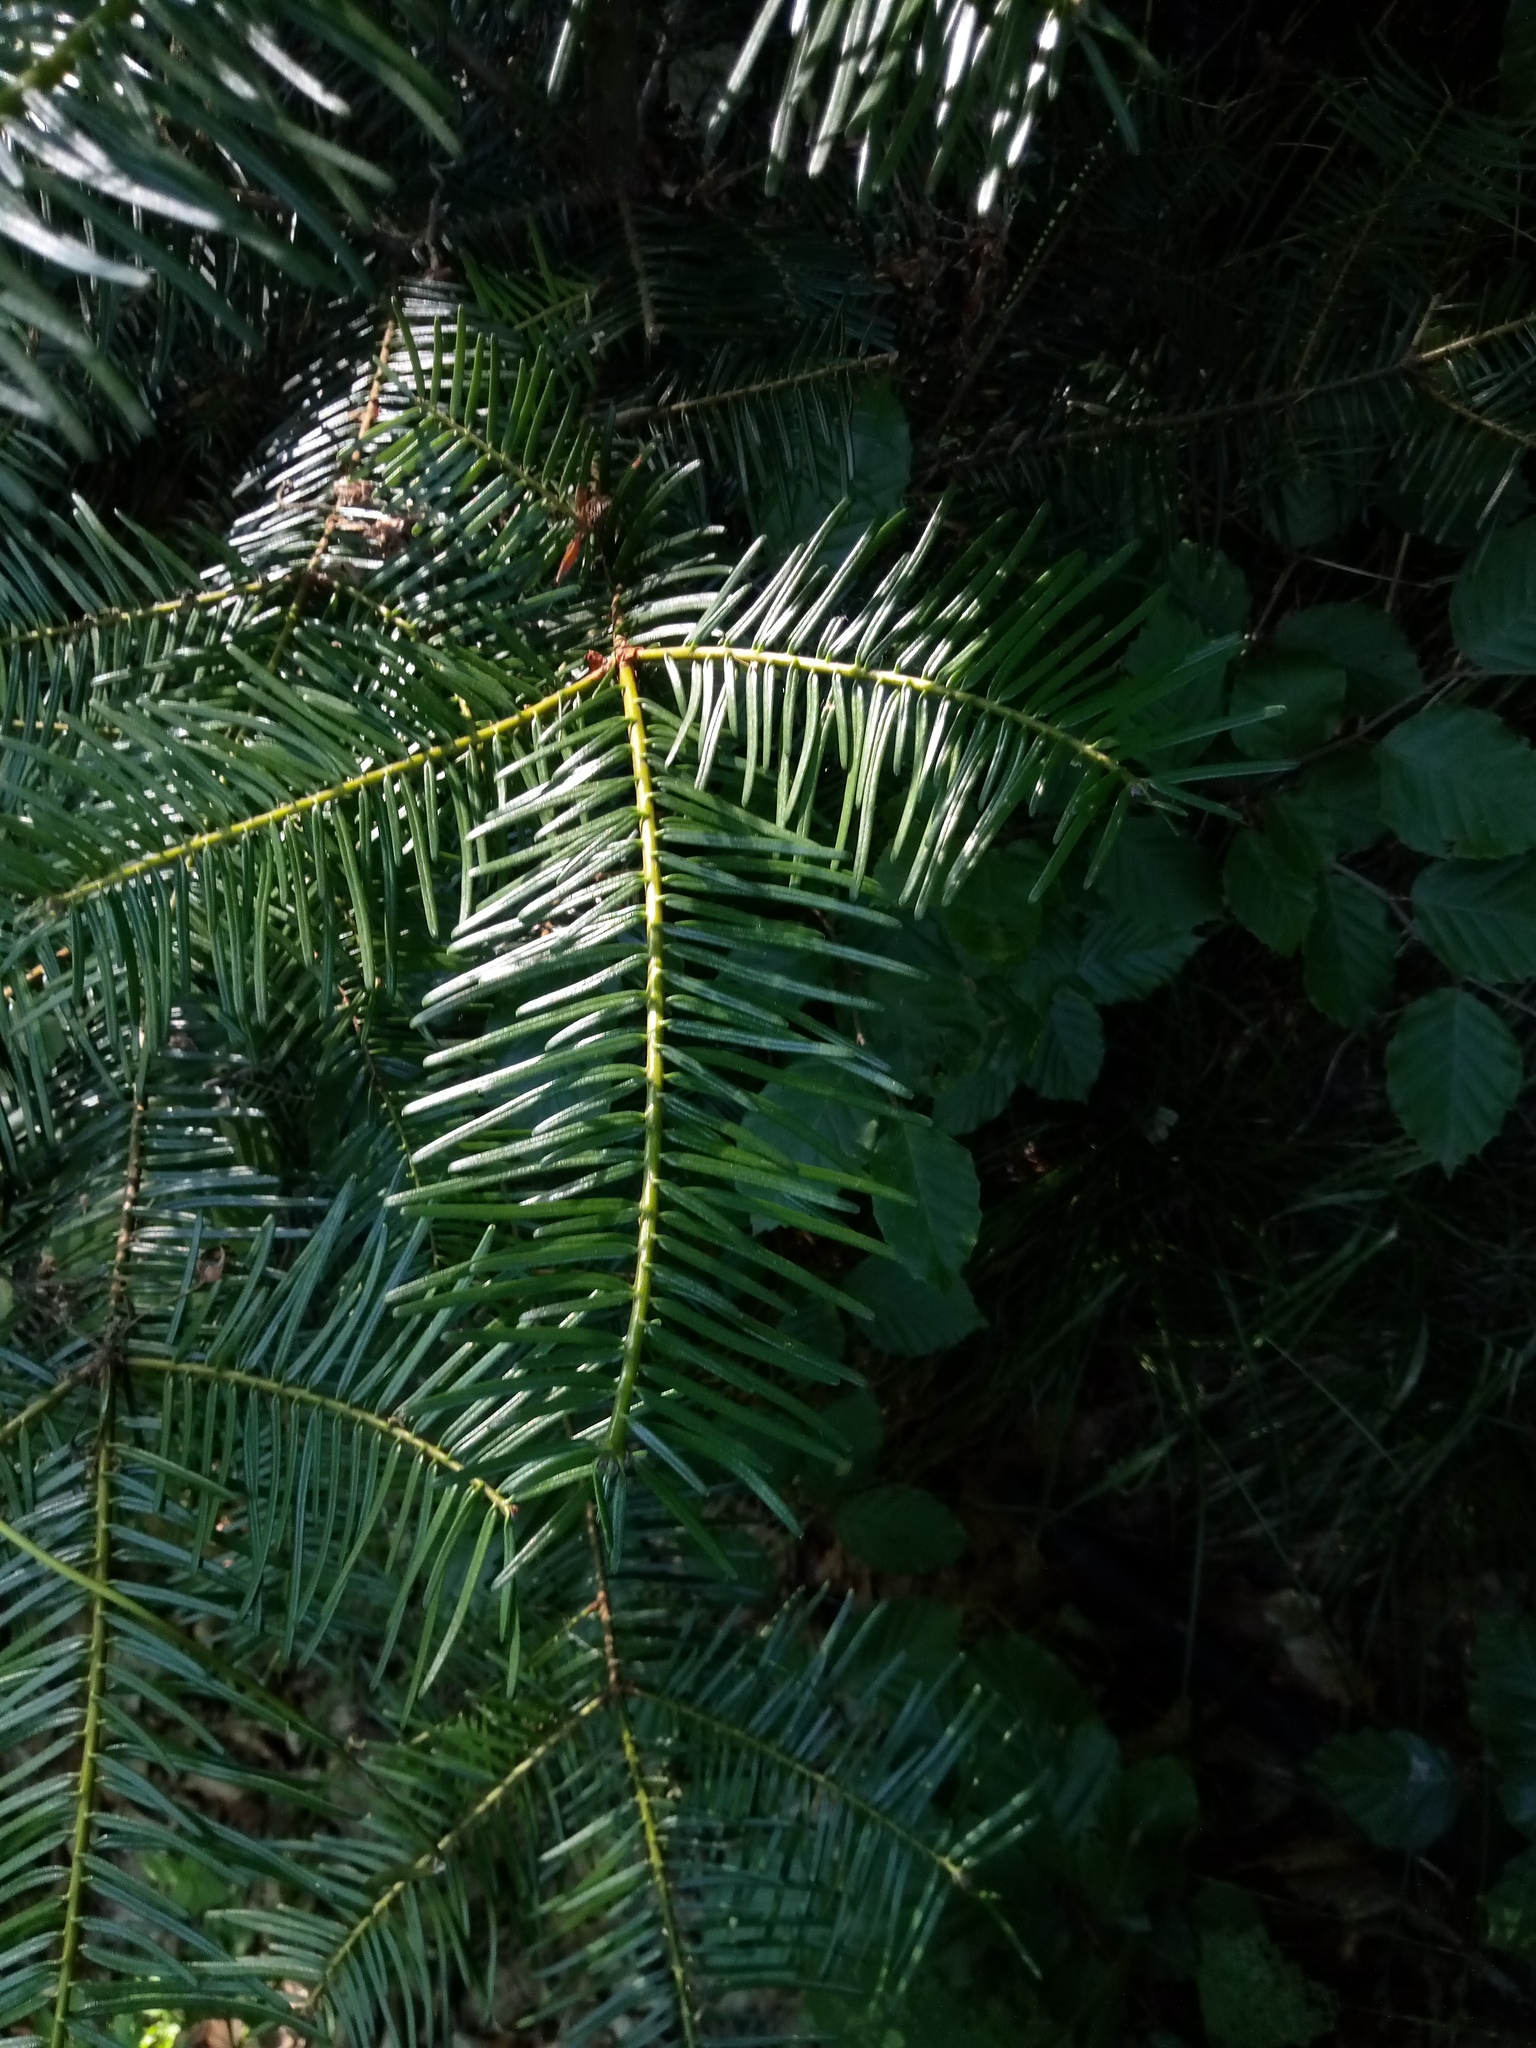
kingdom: Plantae
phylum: Tracheophyta
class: Pinopsida
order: Pinales
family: Pinaceae
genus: Abies
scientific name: Abies grandis
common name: Giant fir
